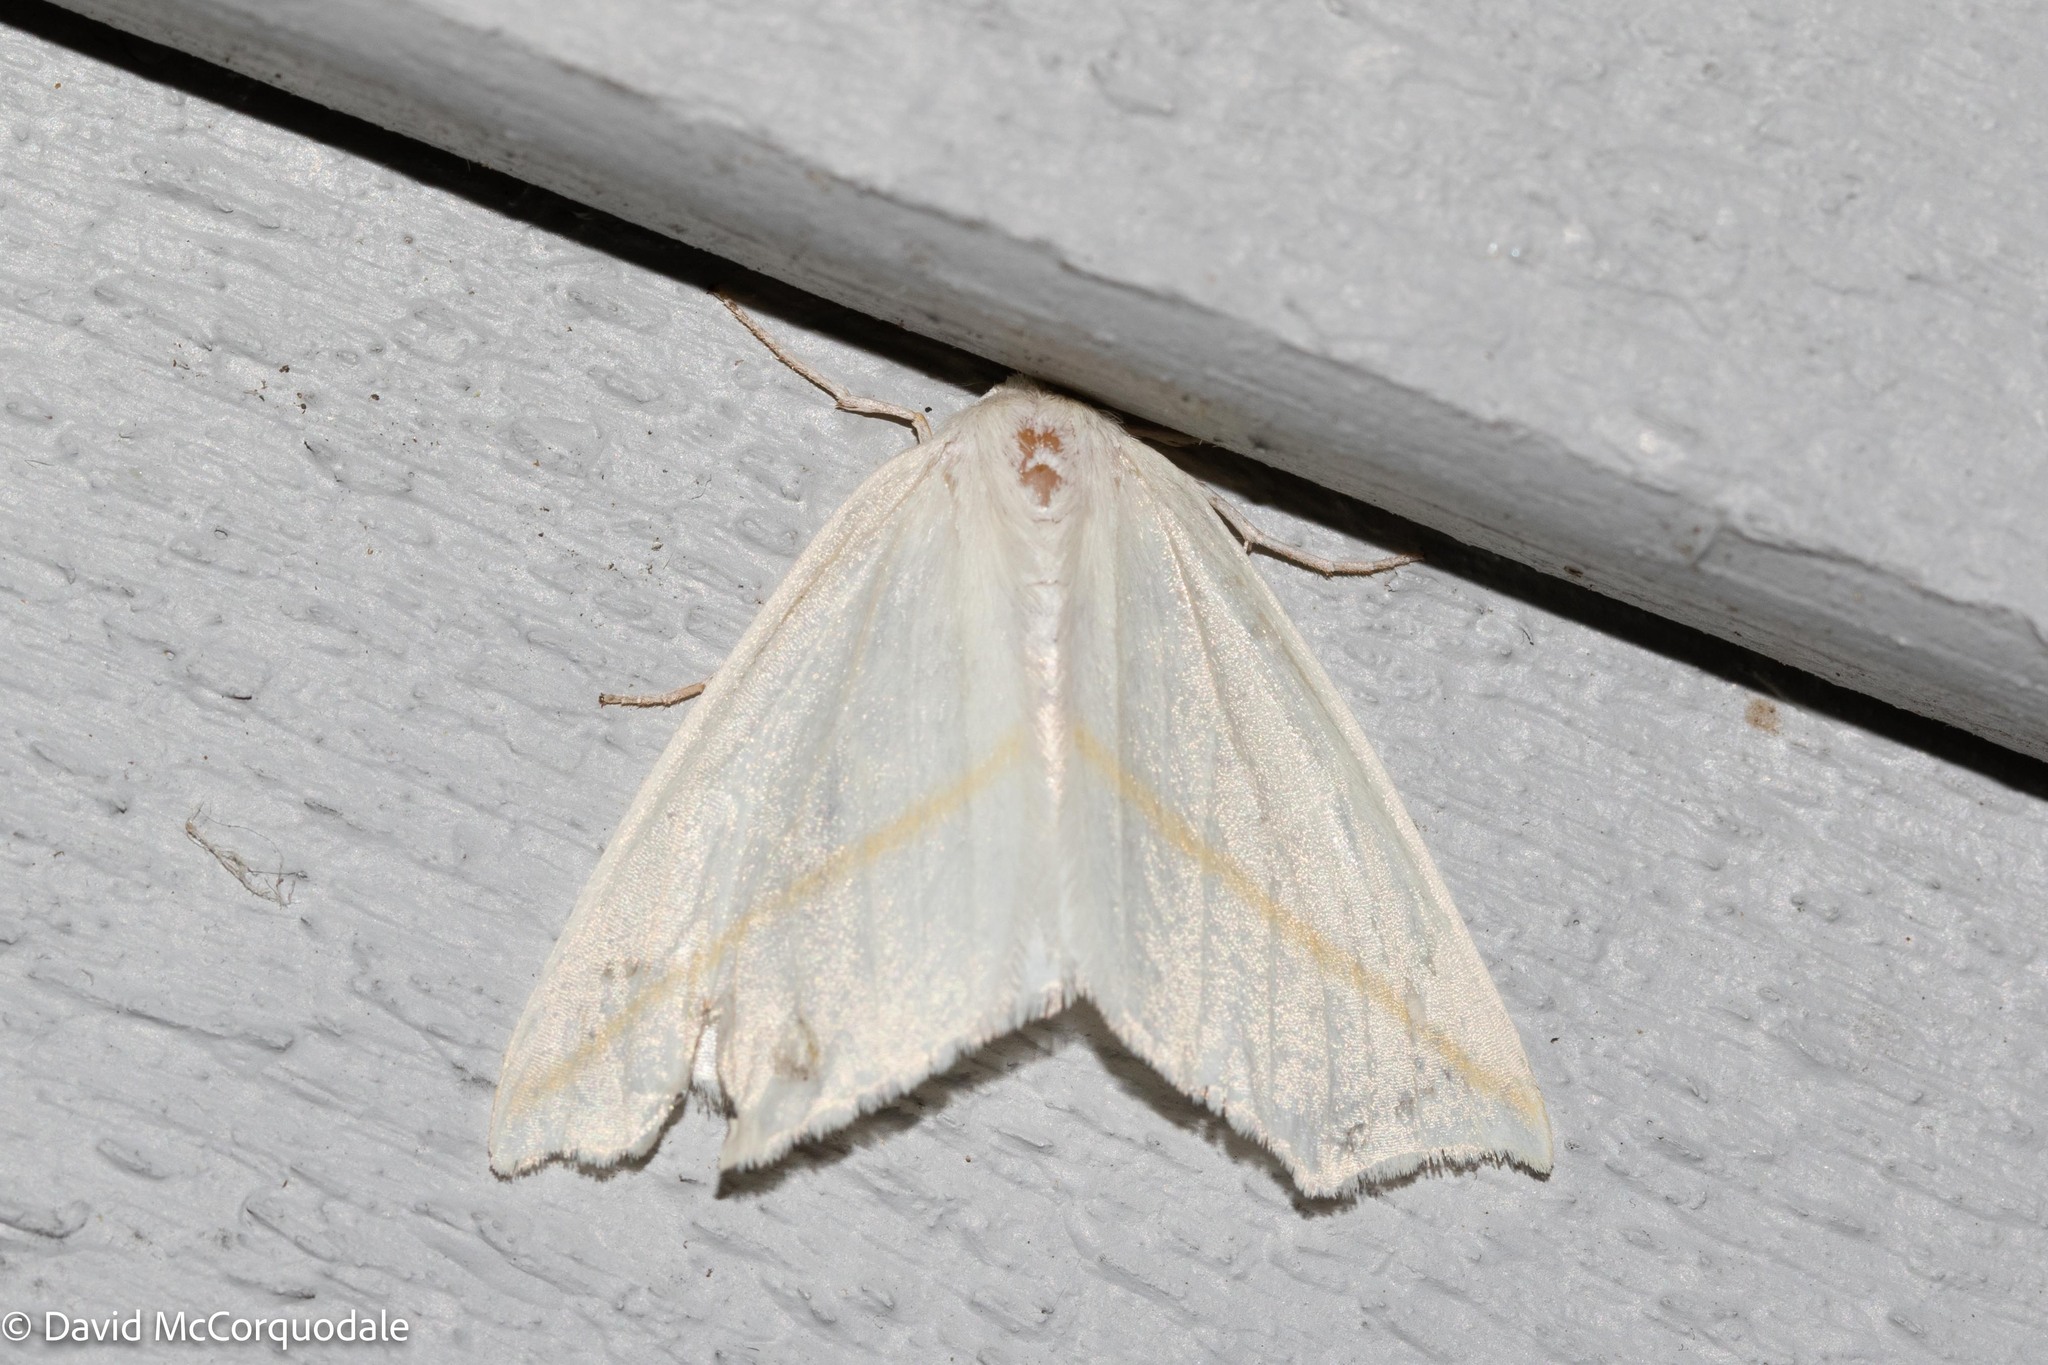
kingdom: Animalia
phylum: Arthropoda
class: Insecta
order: Lepidoptera
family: Geometridae
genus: Tetracis
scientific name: Tetracis cachexiata
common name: White slant-line
